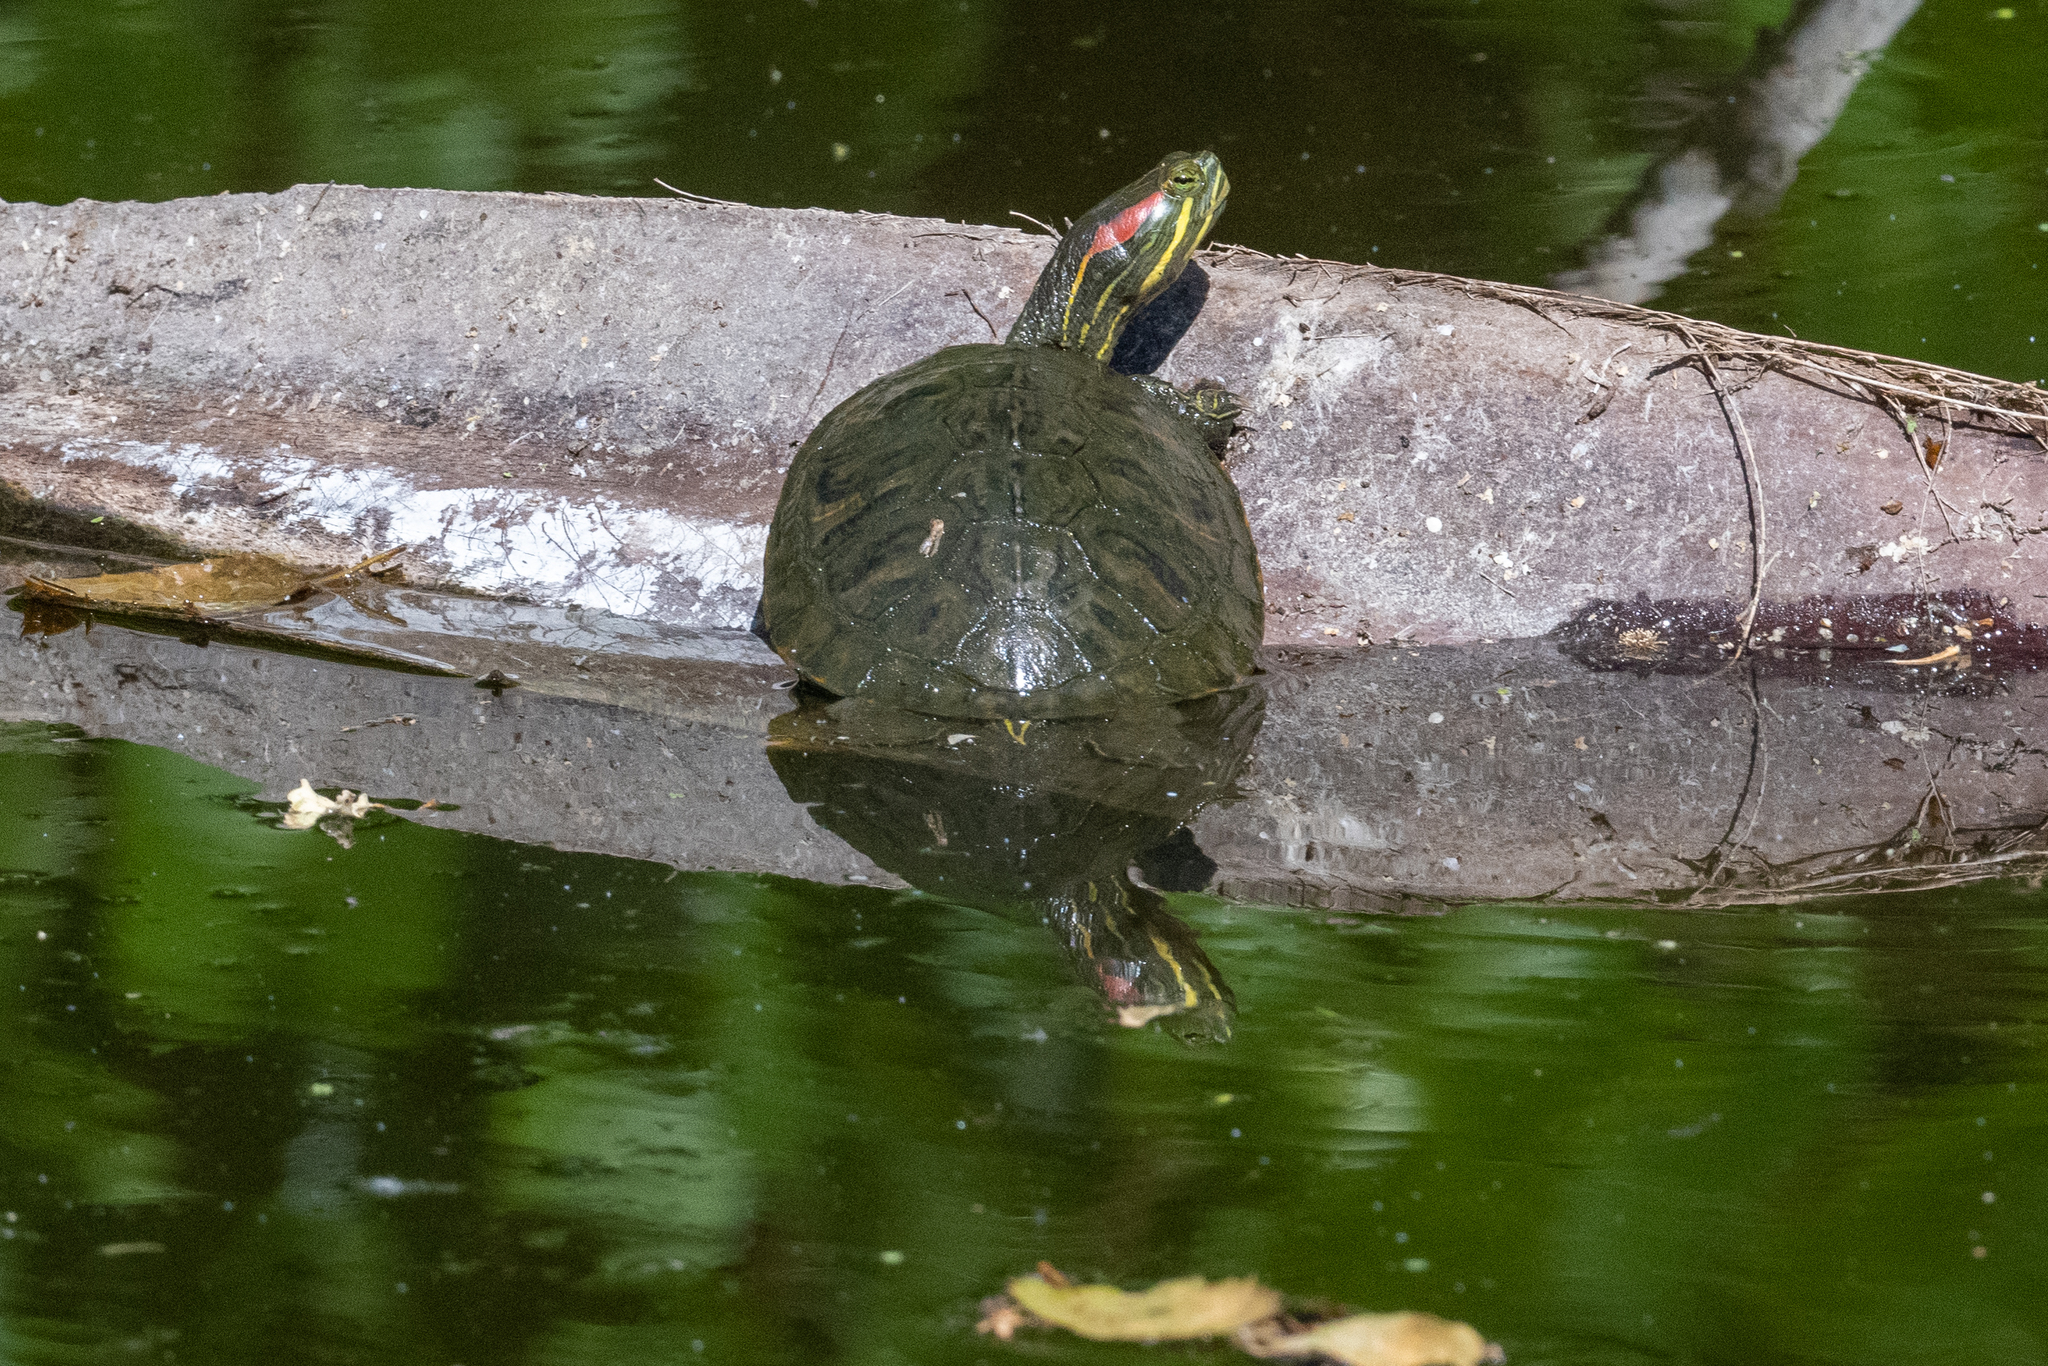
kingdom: Animalia
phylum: Chordata
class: Testudines
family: Emydidae
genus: Trachemys
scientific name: Trachemys scripta
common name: Slider
